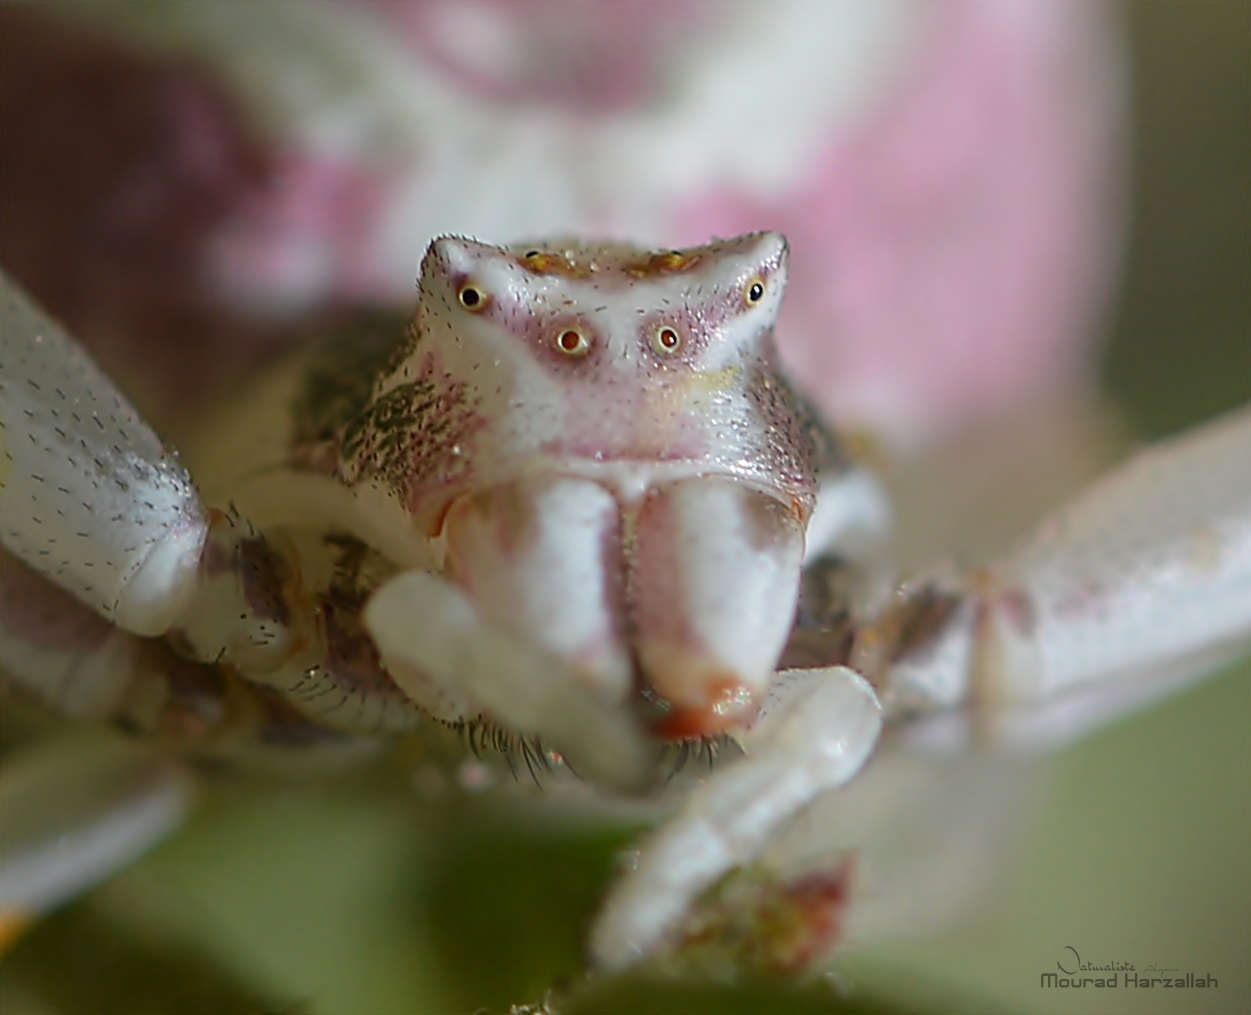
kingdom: Animalia
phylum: Arthropoda
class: Arachnida
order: Araneae
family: Thomisidae
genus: Thomisus
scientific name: Thomisus onustus
